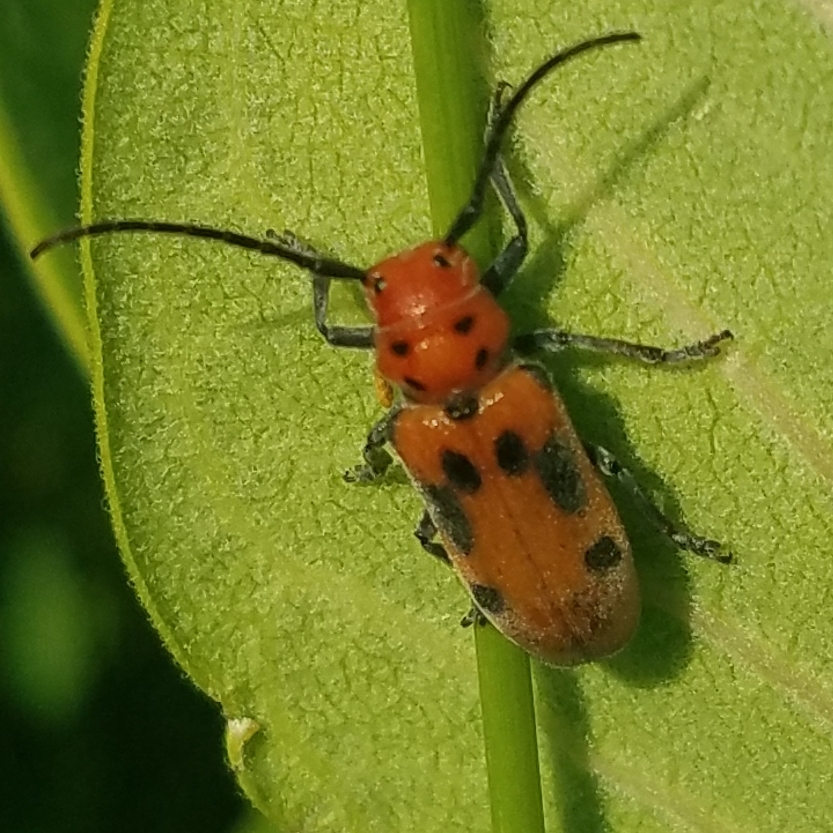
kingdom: Animalia
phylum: Arthropoda
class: Insecta
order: Coleoptera
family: Cerambycidae
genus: Tetraopes
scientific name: Tetraopes tetrophthalmus
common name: Red milkweed beetle
